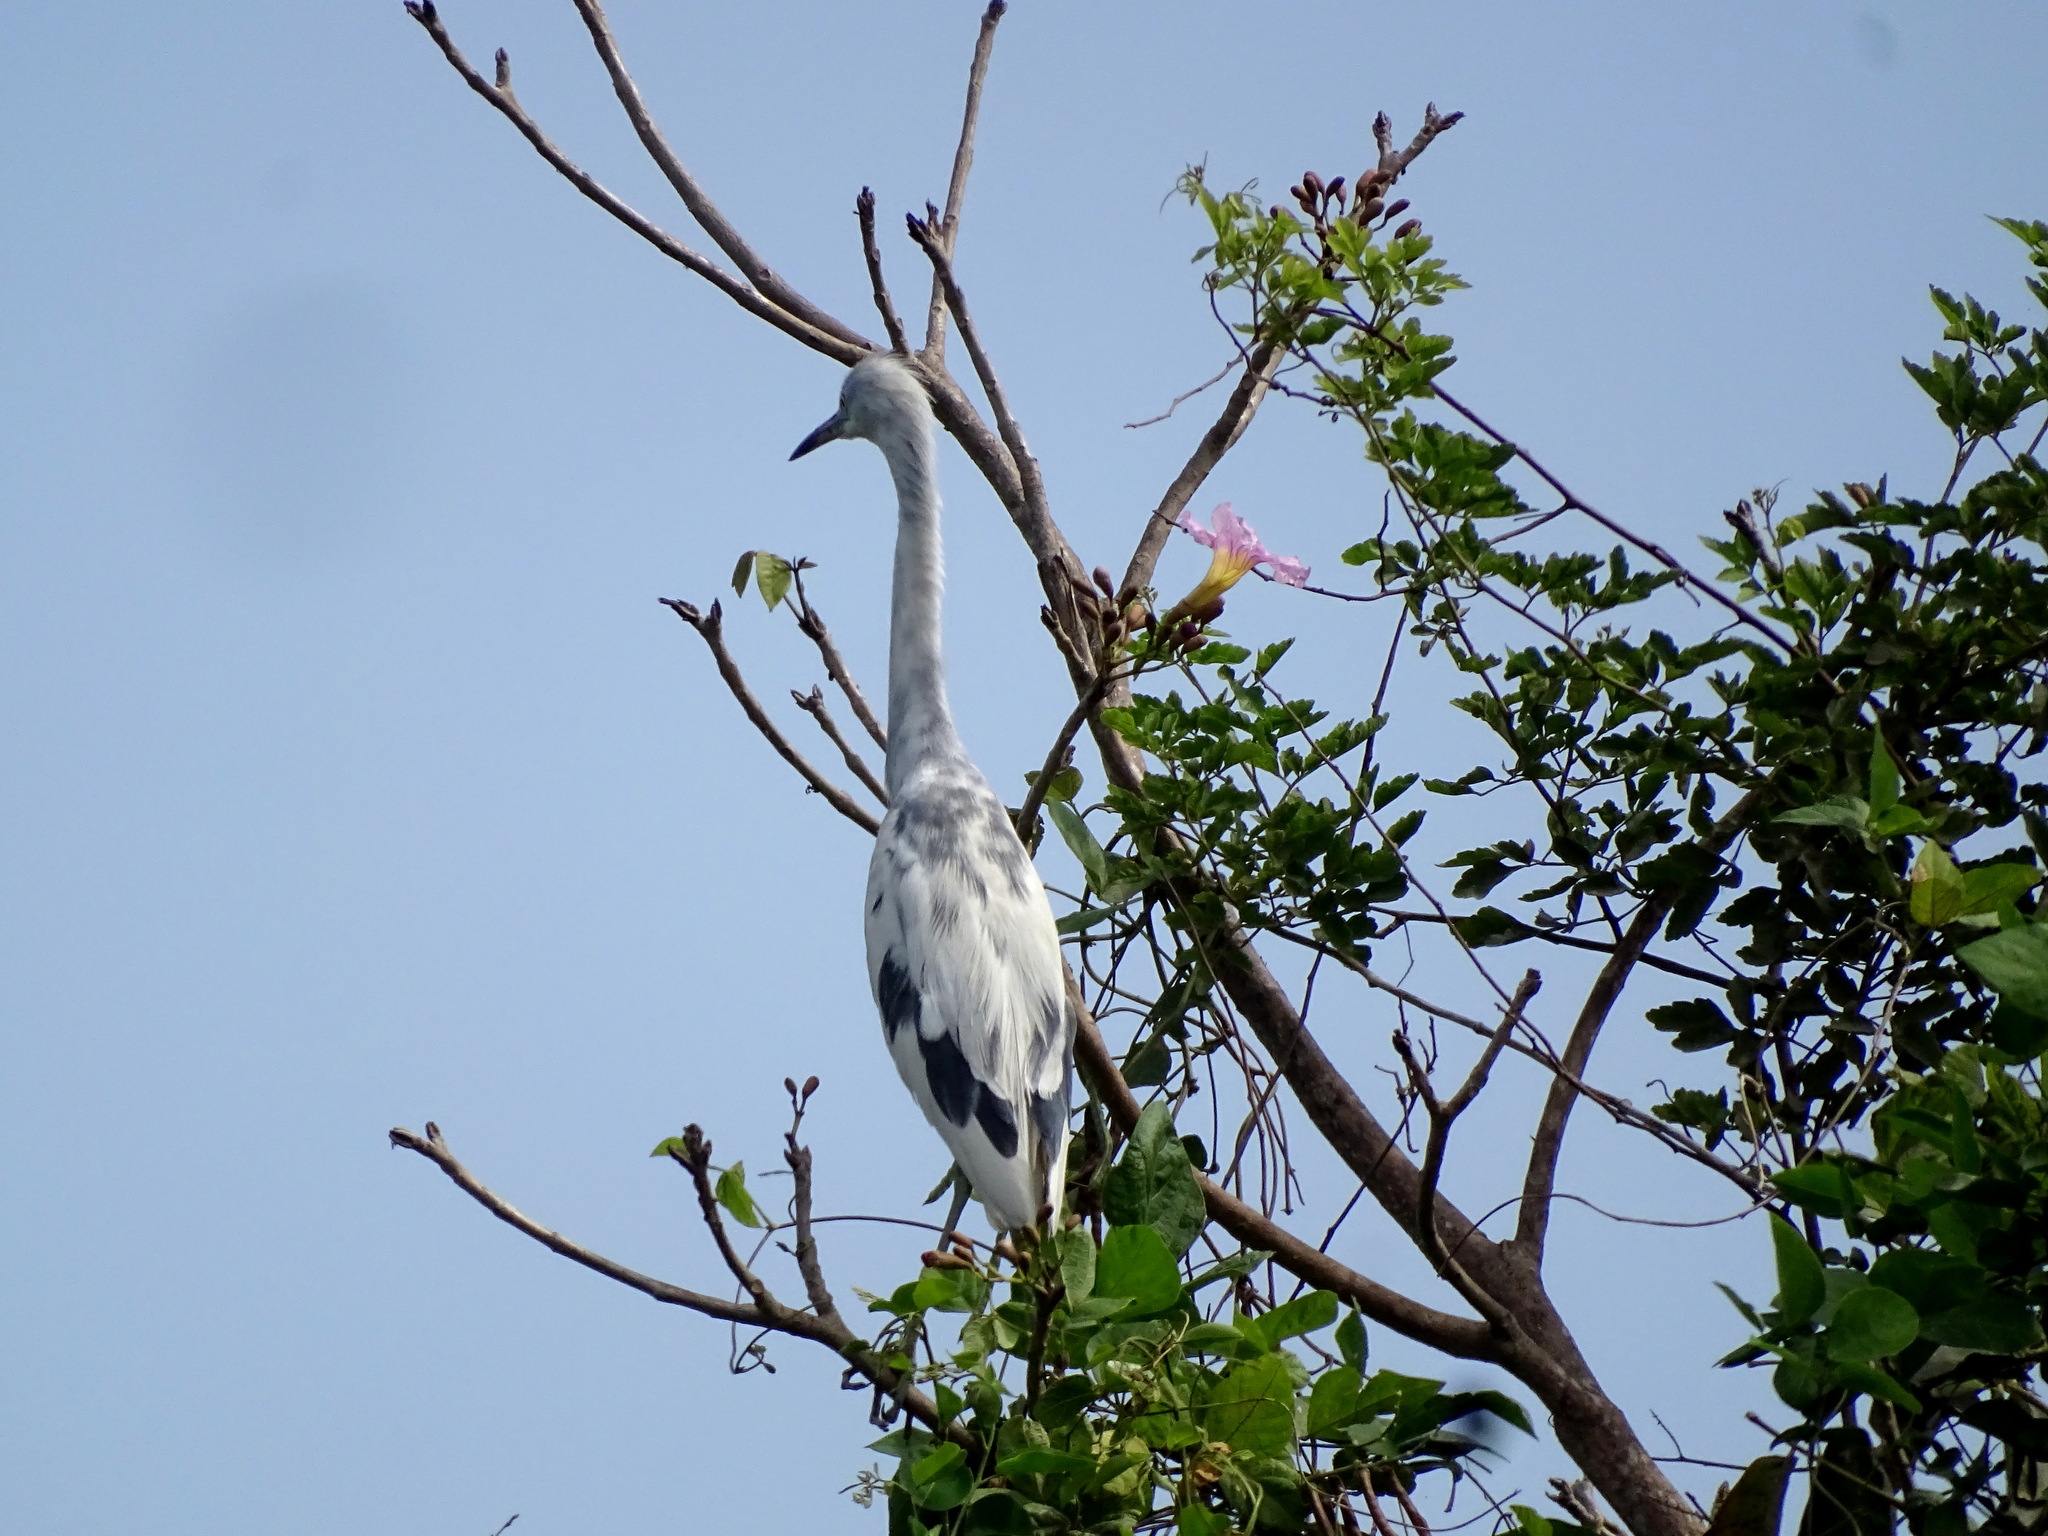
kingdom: Animalia
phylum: Chordata
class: Aves
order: Pelecaniformes
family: Ardeidae
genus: Egretta
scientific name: Egretta caerulea
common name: Little blue heron
